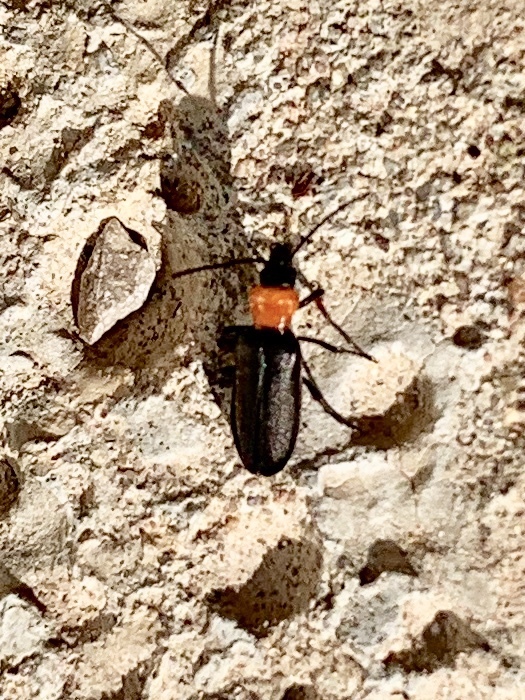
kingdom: Animalia
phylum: Arthropoda
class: Insecta
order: Coleoptera
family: Oedemeridae
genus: Eumecomera
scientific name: Eumecomera obscura
